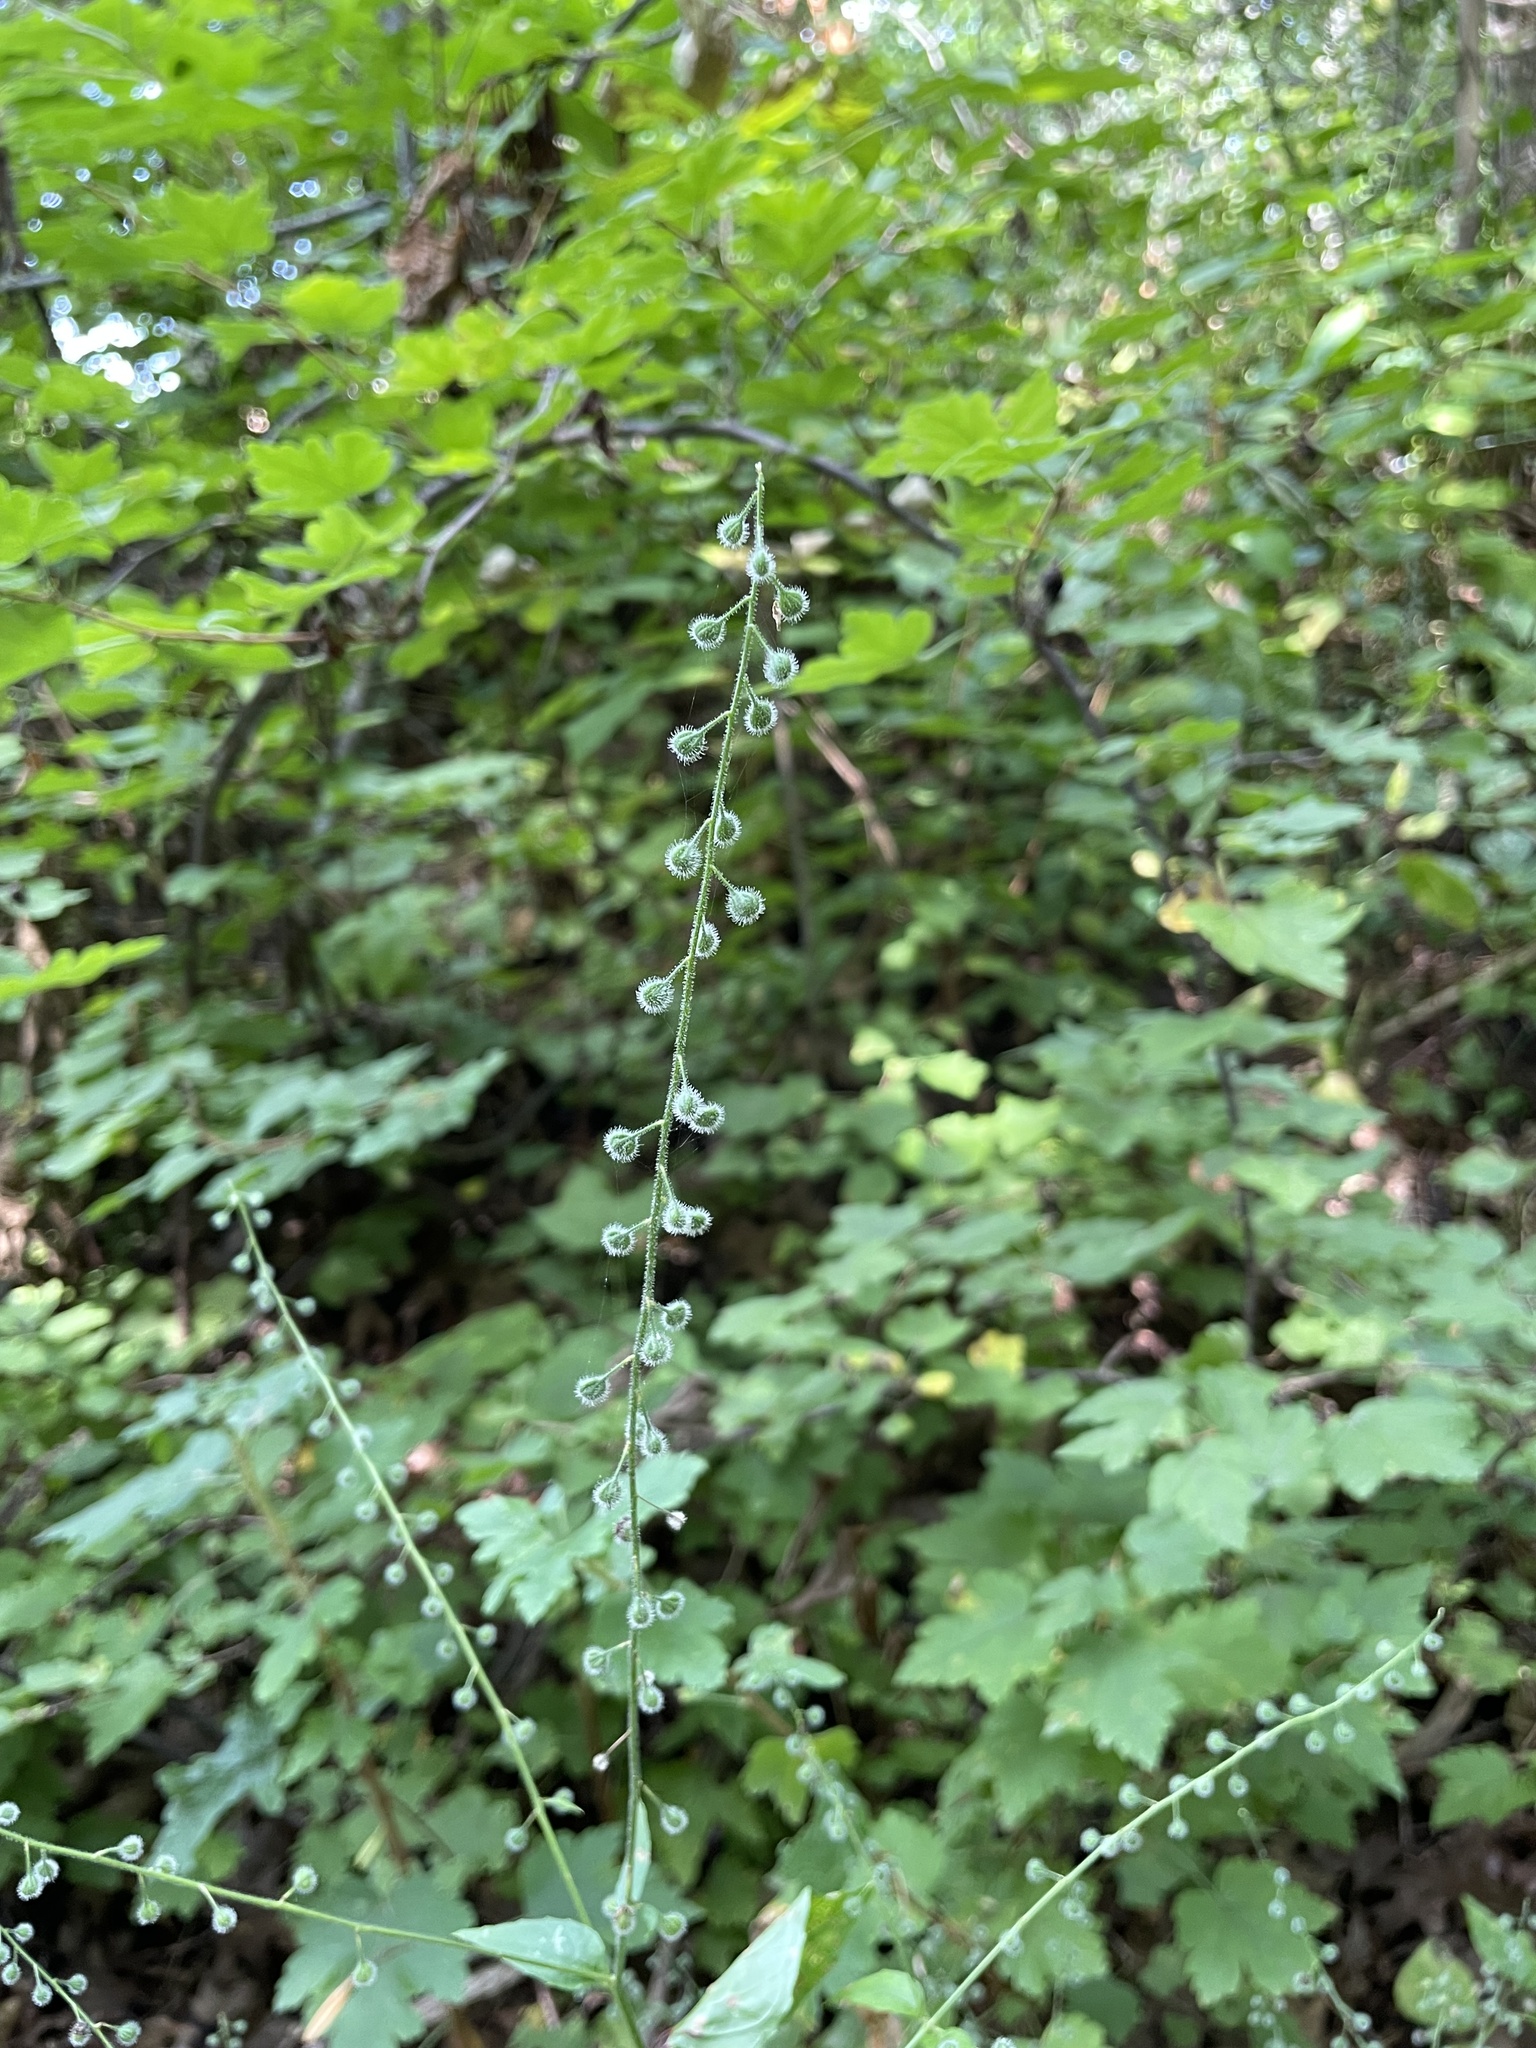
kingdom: Plantae
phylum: Tracheophyta
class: Magnoliopsida
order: Myrtales
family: Onagraceae
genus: Circaea
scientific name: Circaea canadensis
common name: Broad-leaved enchanter's nightshade
